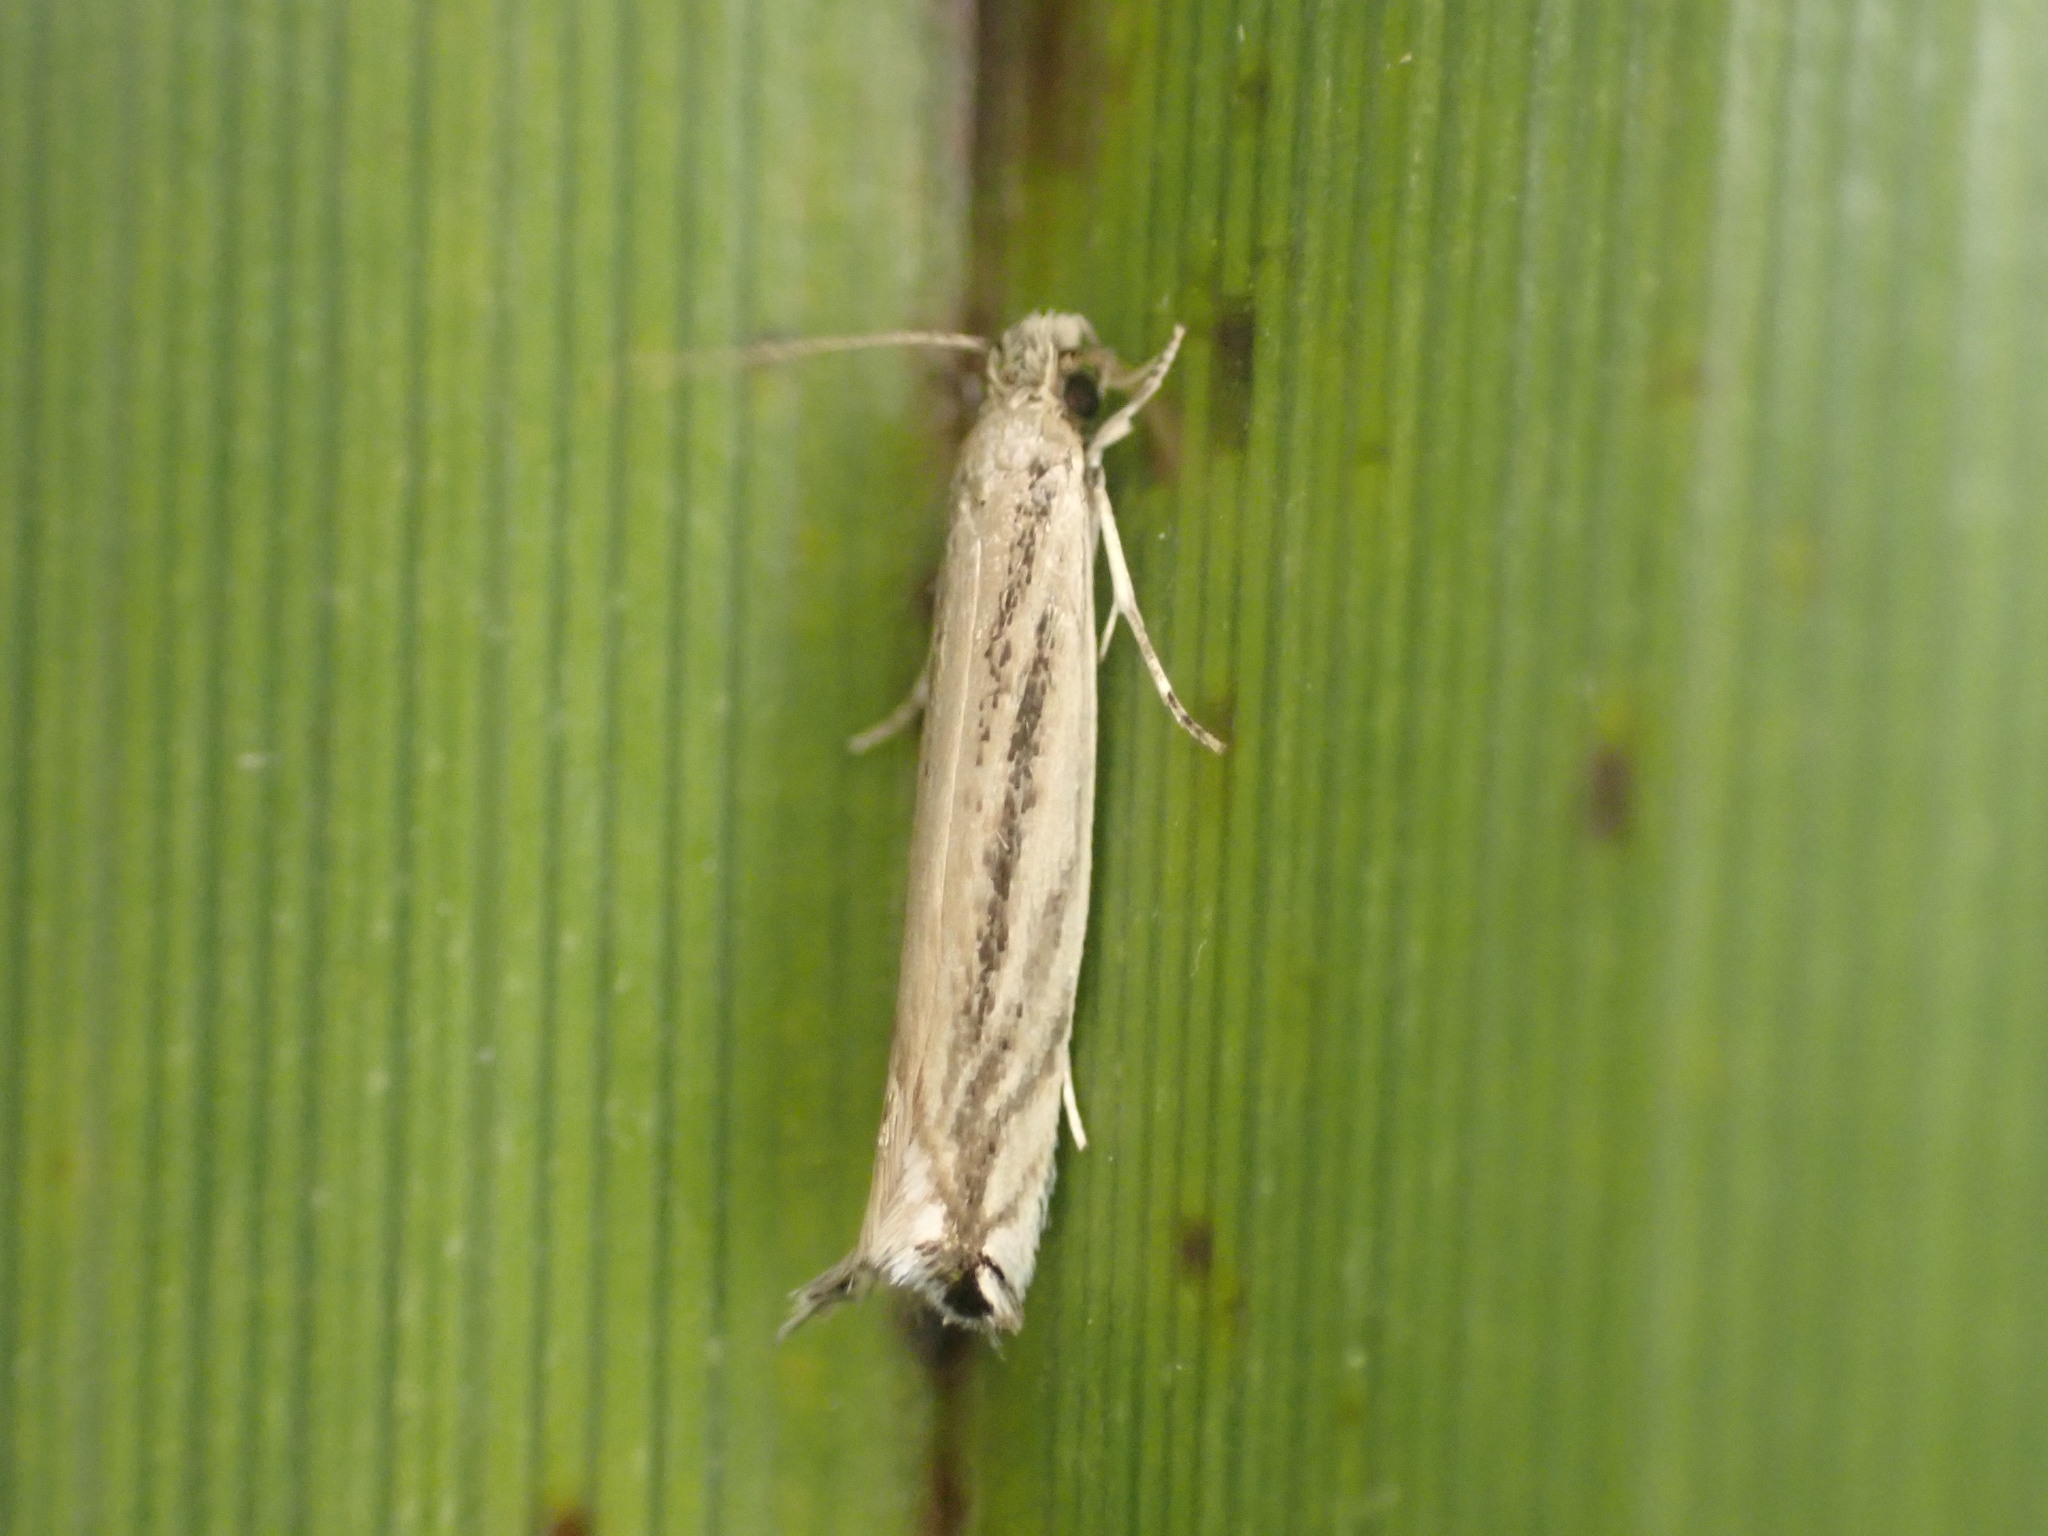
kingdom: Animalia
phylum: Arthropoda
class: Insecta
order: Lepidoptera
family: Tineidae
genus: Erechthias
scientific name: Erechthias exospila
